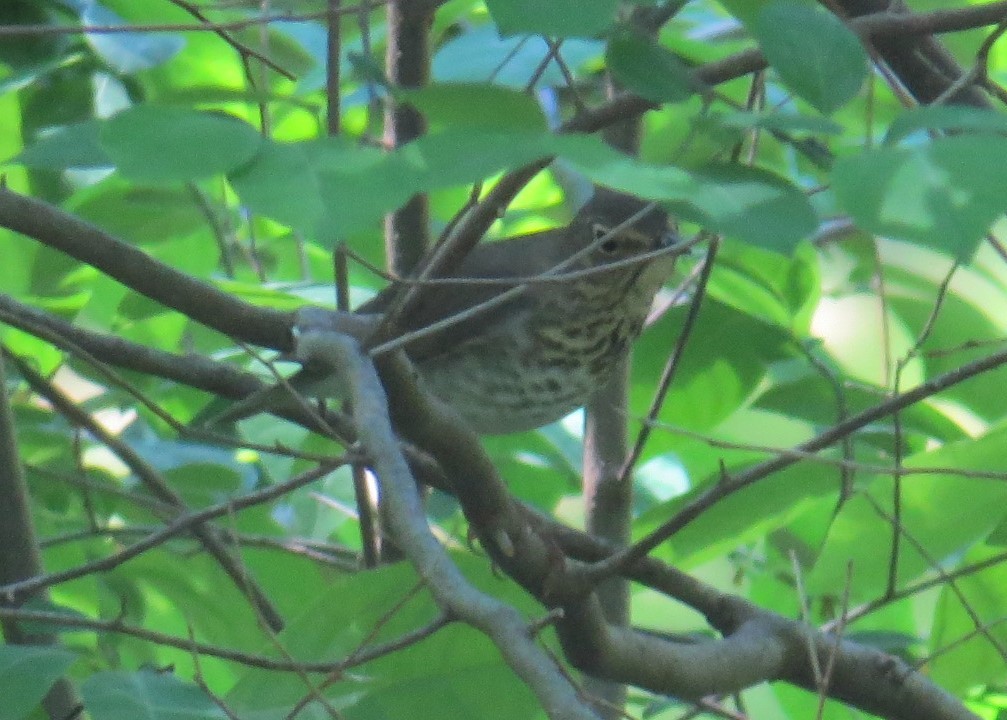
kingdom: Animalia
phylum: Chordata
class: Aves
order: Passeriformes
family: Turdidae
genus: Catharus
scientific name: Catharus ustulatus
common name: Swainson's thrush
